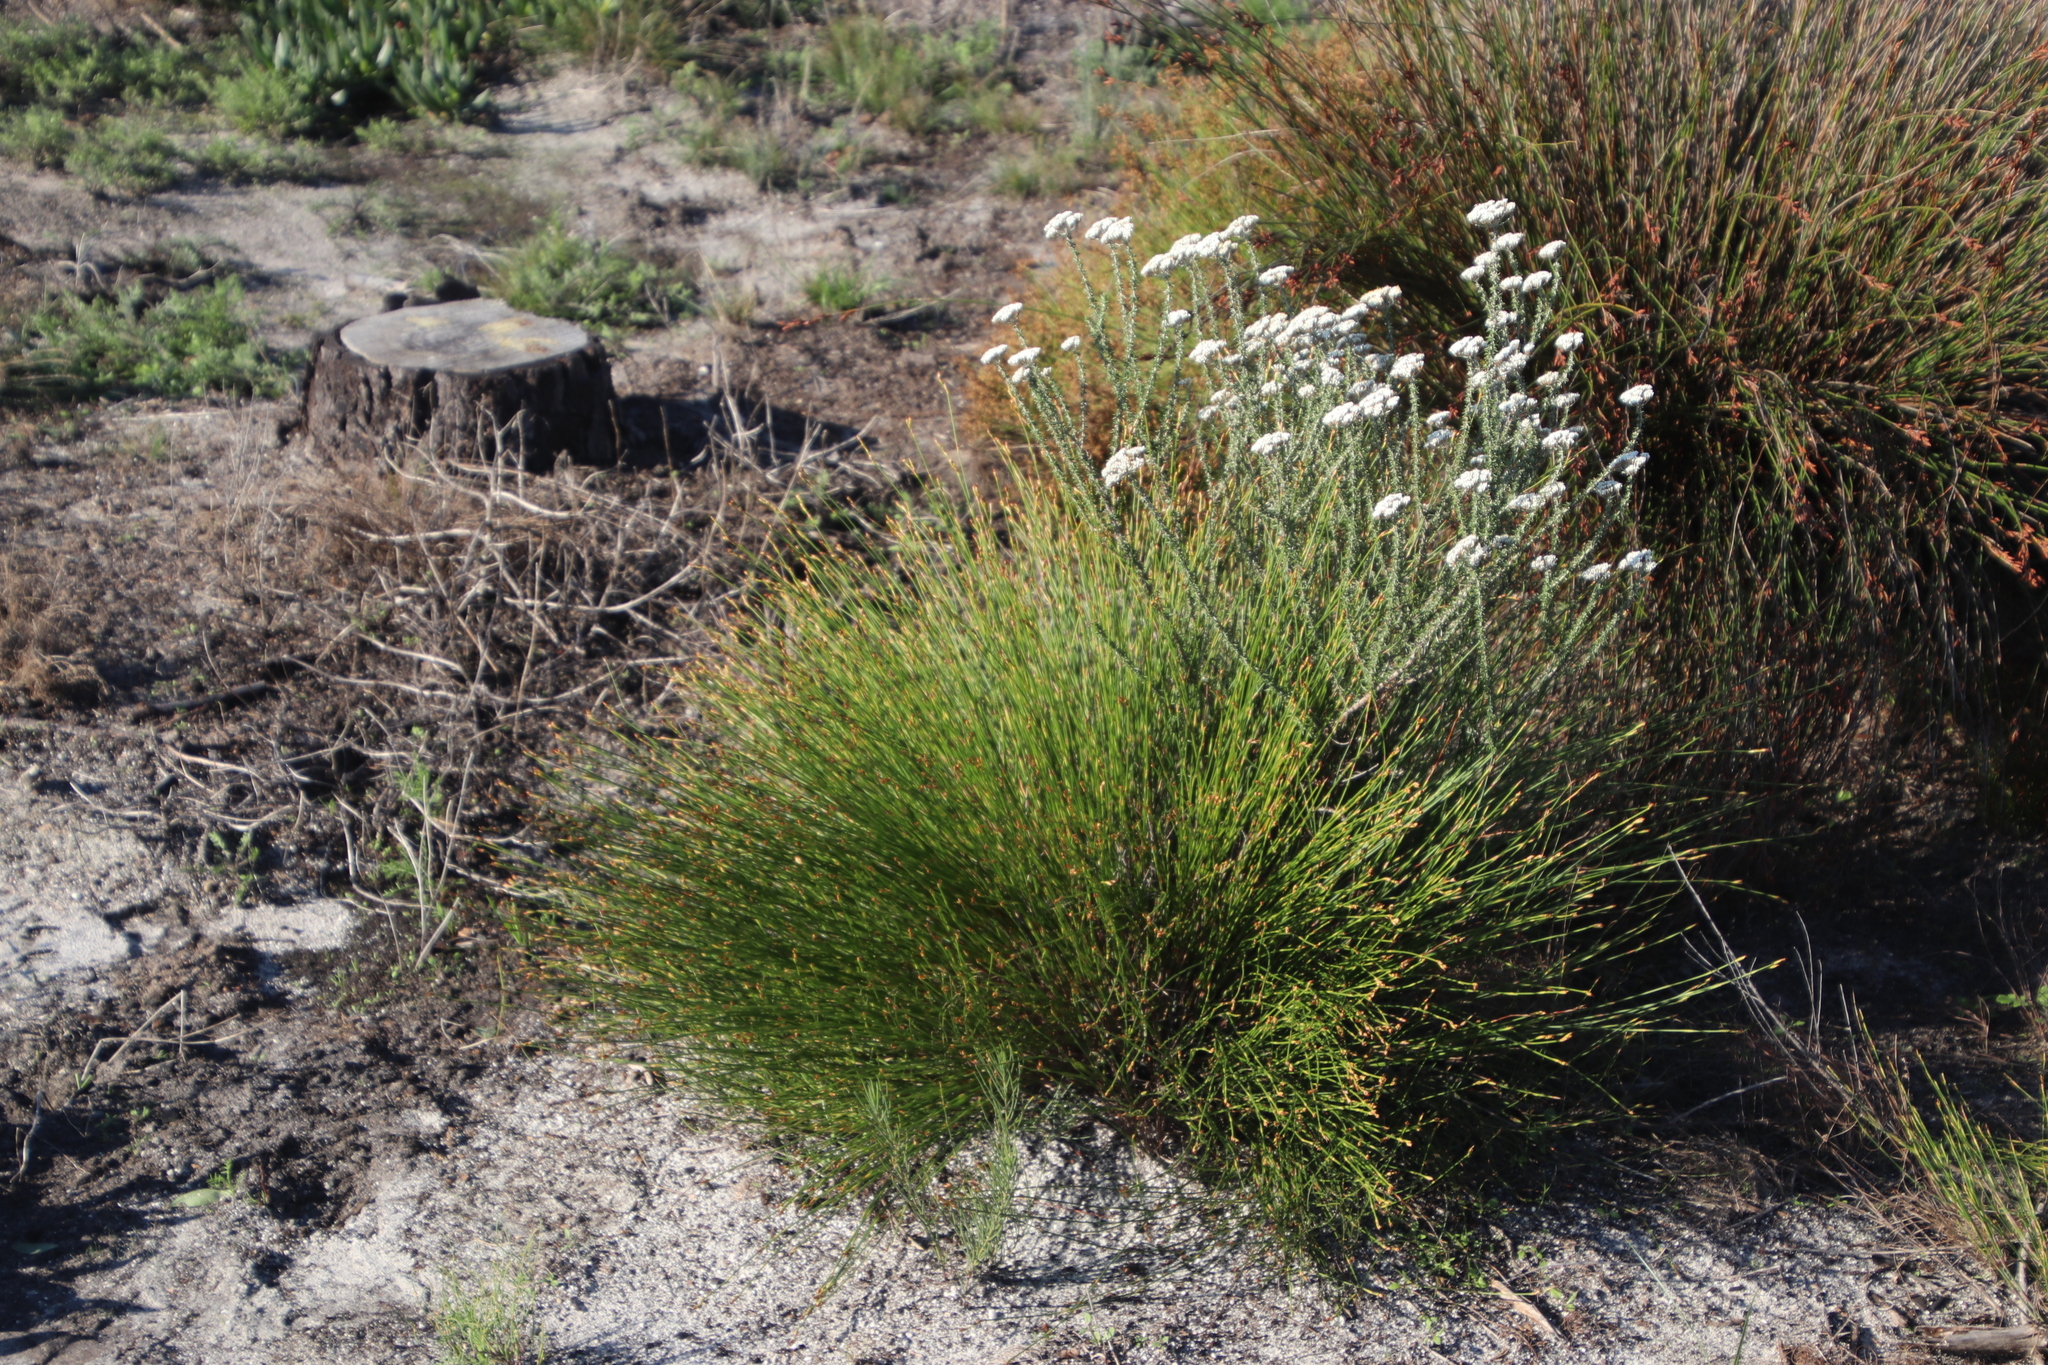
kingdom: Plantae
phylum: Tracheophyta
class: Liliopsida
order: Poales
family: Restionaceae
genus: Mastersiella
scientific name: Mastersiella digitata
